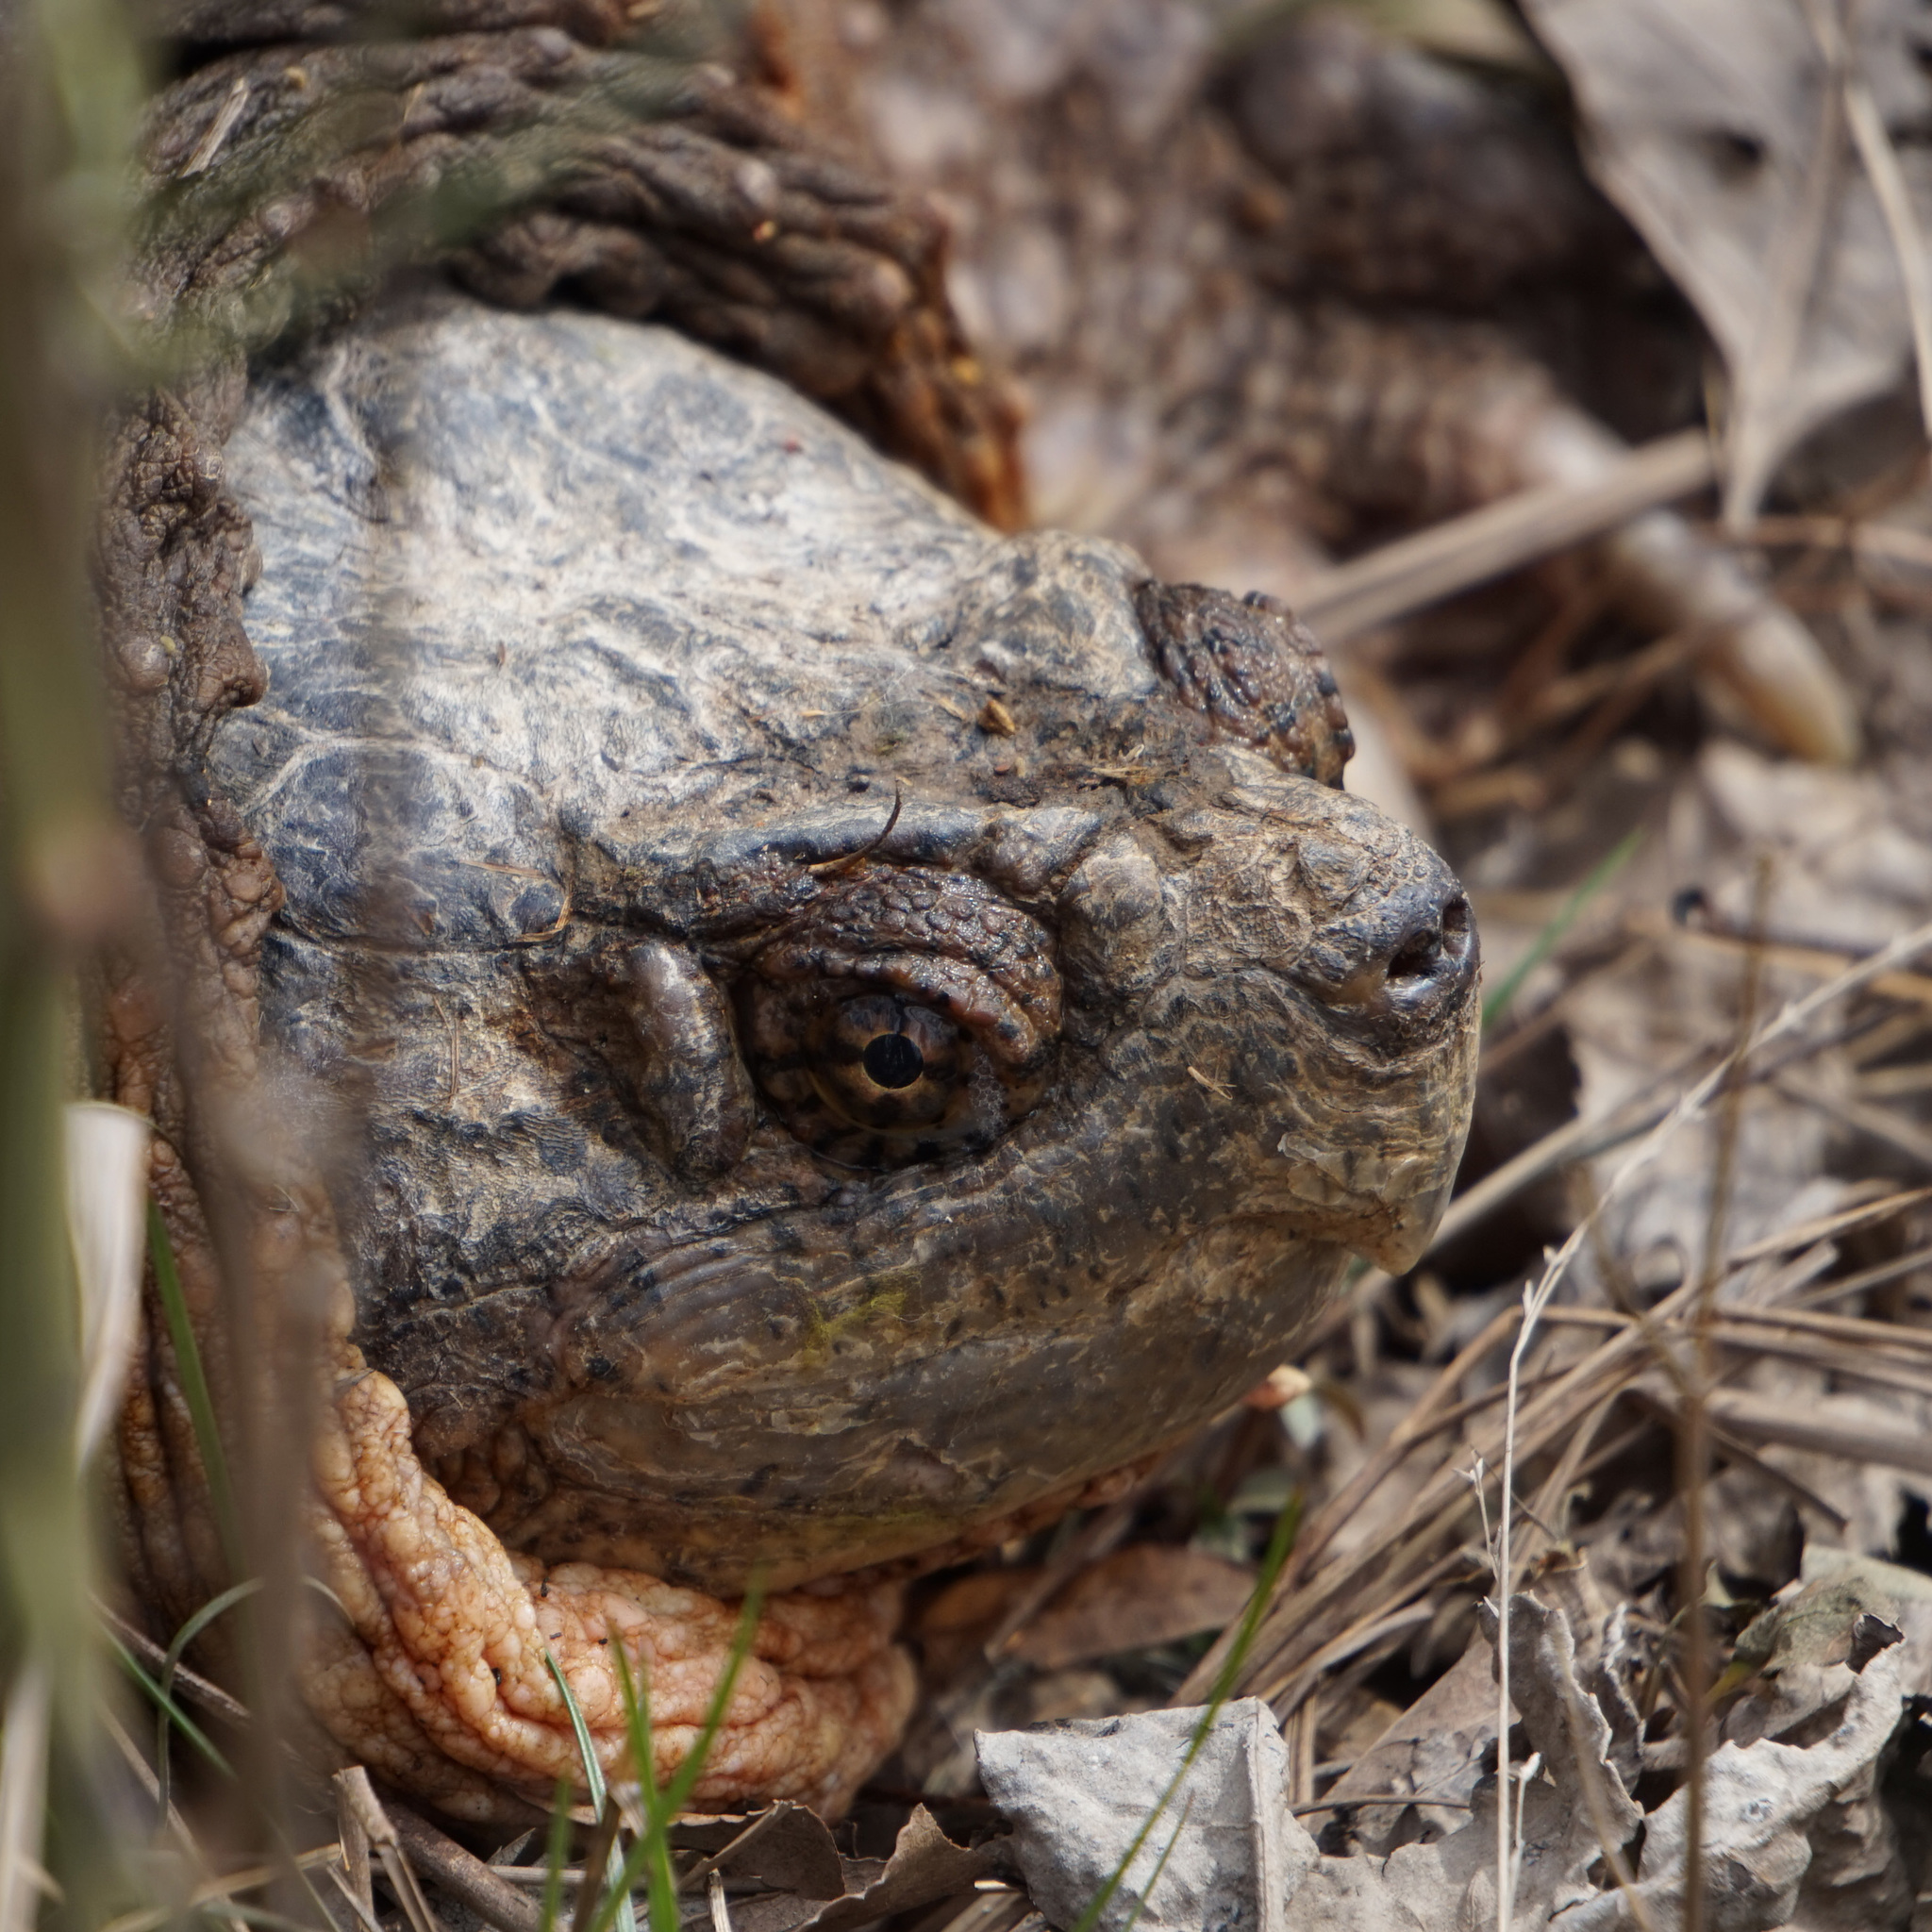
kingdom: Animalia
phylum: Chordata
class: Testudines
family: Chelydridae
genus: Chelydra
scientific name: Chelydra serpentina
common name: Common snapping turtle
